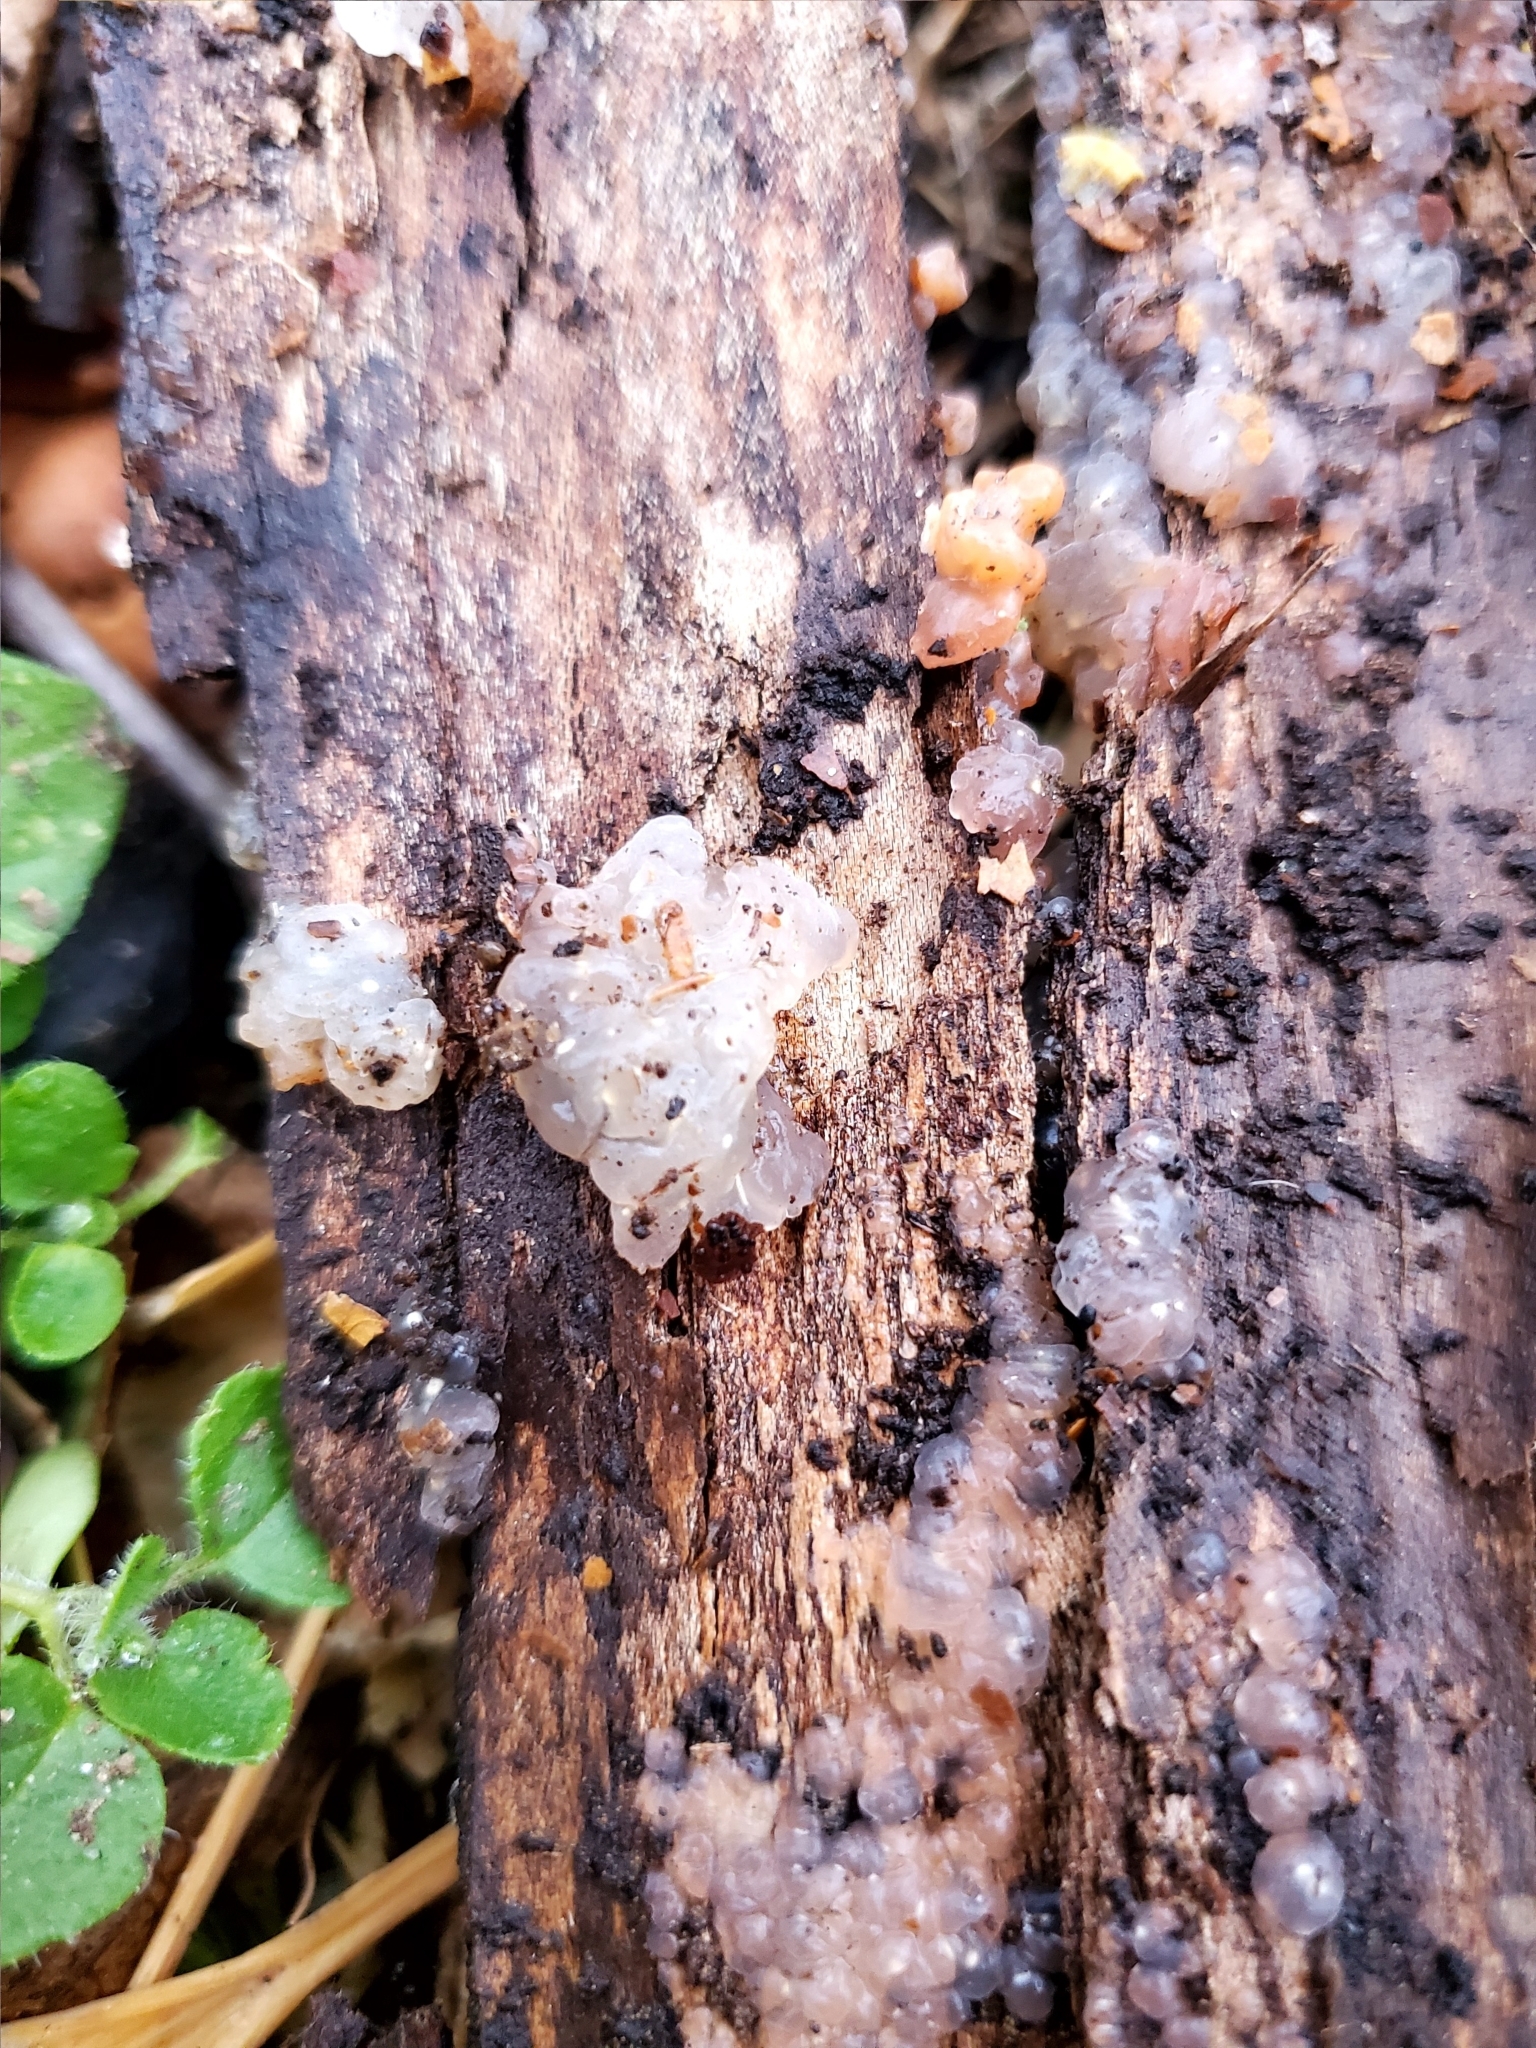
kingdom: Fungi
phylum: Basidiomycota
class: Agaricomycetes
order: Auriculariales
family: Hyaloriaceae
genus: Myxarium
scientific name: Myxarium nucleatum
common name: Crystal brain fungus
